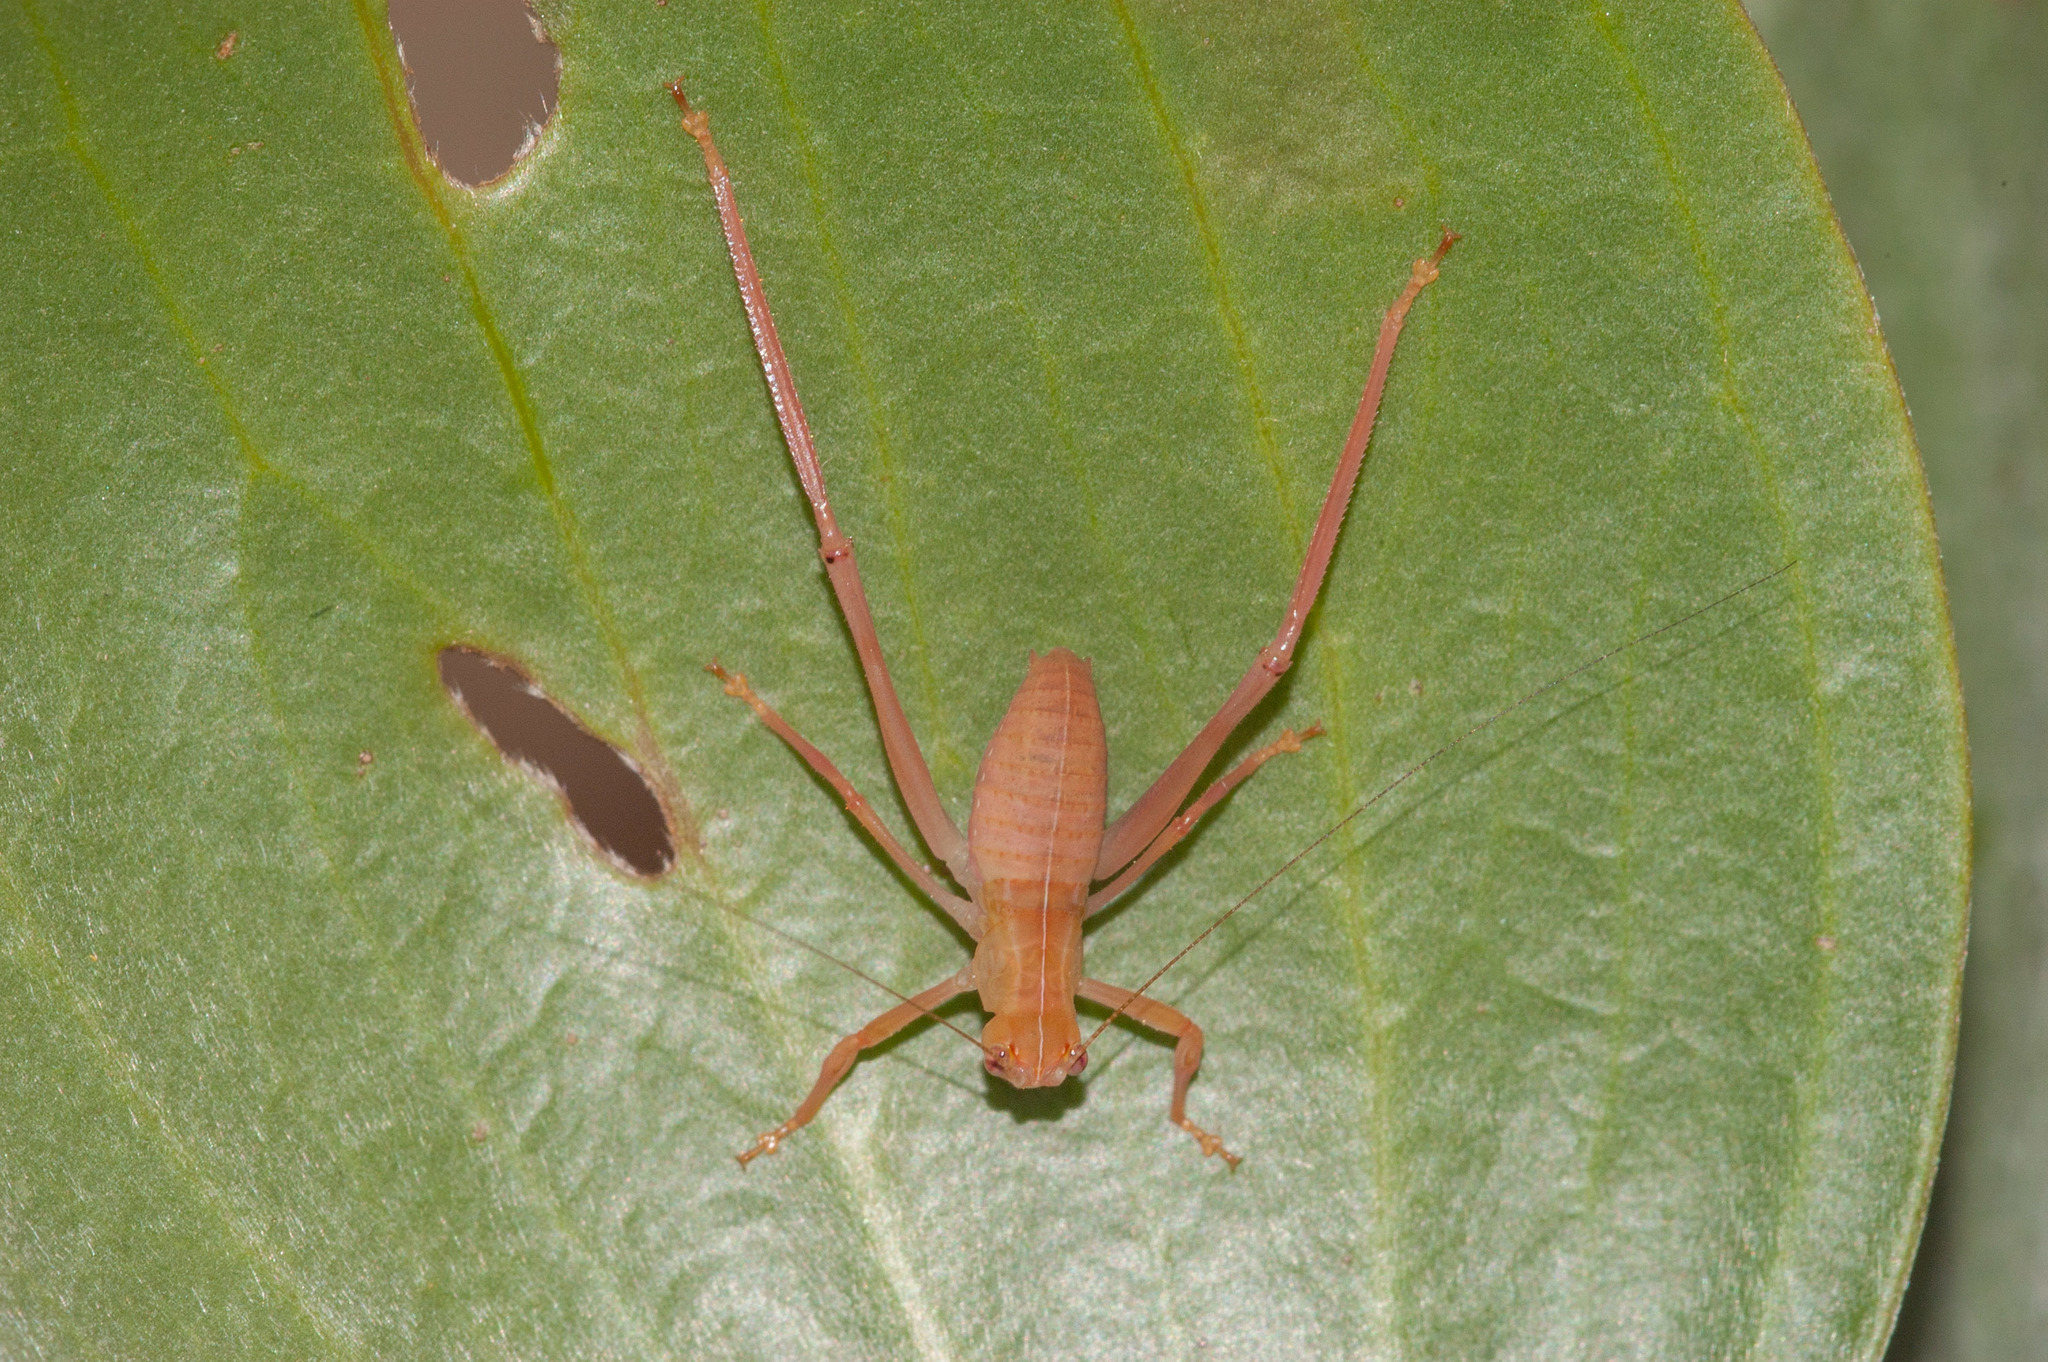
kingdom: Animalia
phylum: Arthropoda
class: Insecta
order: Orthoptera
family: Tettigoniidae
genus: Paracaedicia
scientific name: Paracaedicia serrata
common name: Serrated bush katydid
